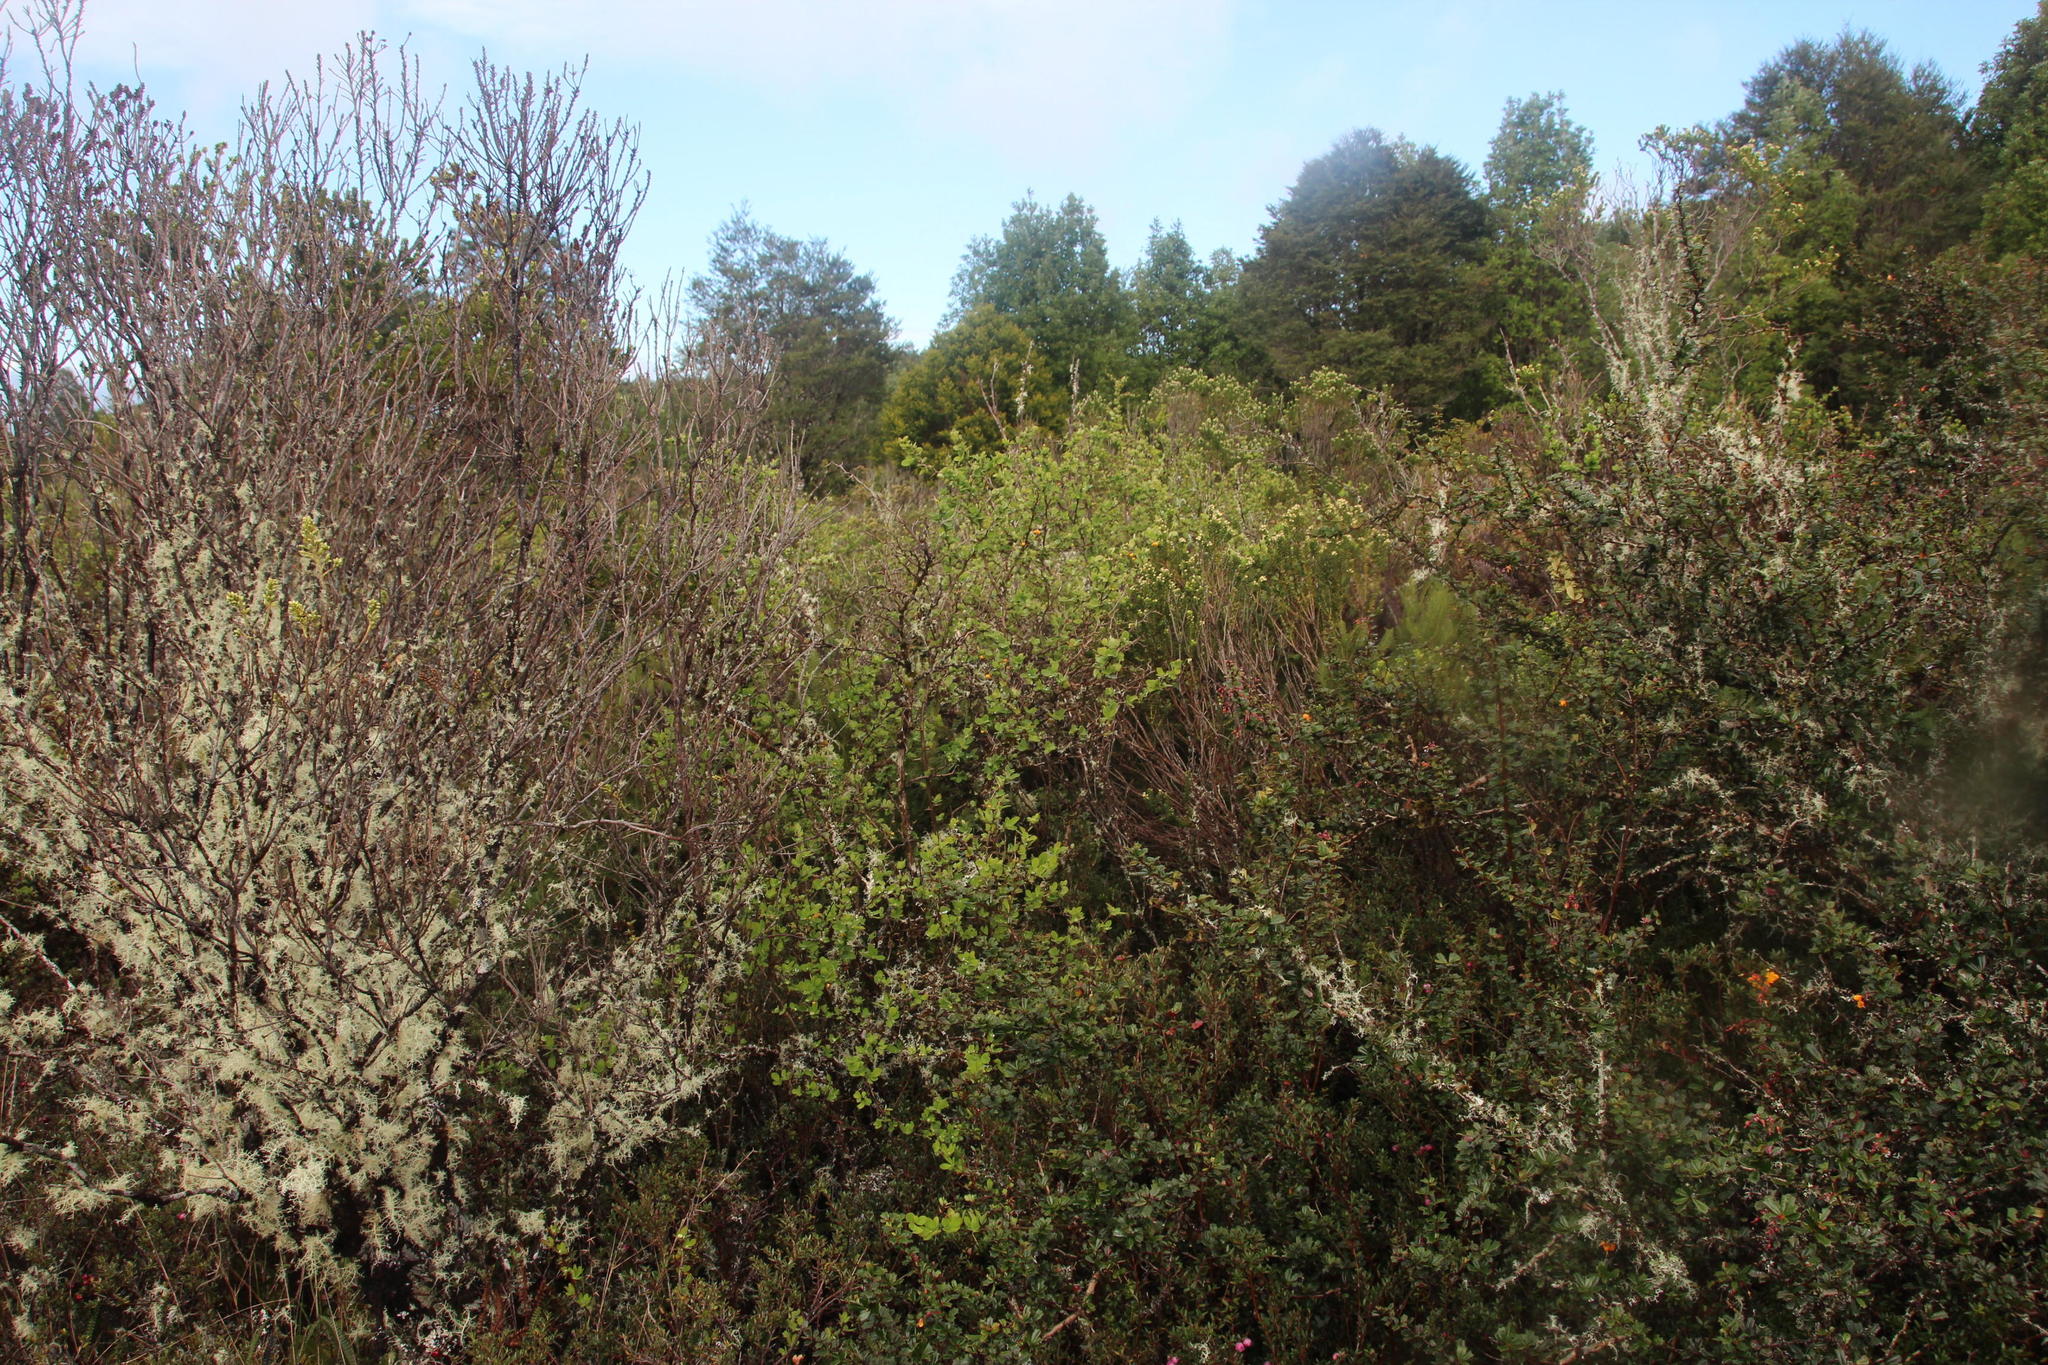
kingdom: Plantae
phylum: Tracheophyta
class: Magnoliopsida
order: Ranunculales
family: Berberidaceae
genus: Berberis
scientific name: Berberis microphylla
